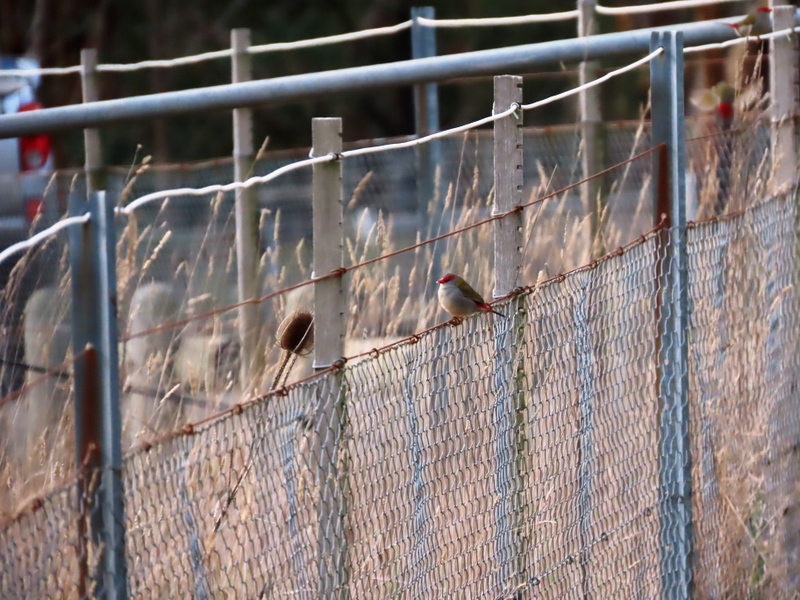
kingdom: Animalia
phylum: Chordata
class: Aves
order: Passeriformes
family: Estrildidae
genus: Neochmia
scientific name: Neochmia temporalis
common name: Red-browed finch
